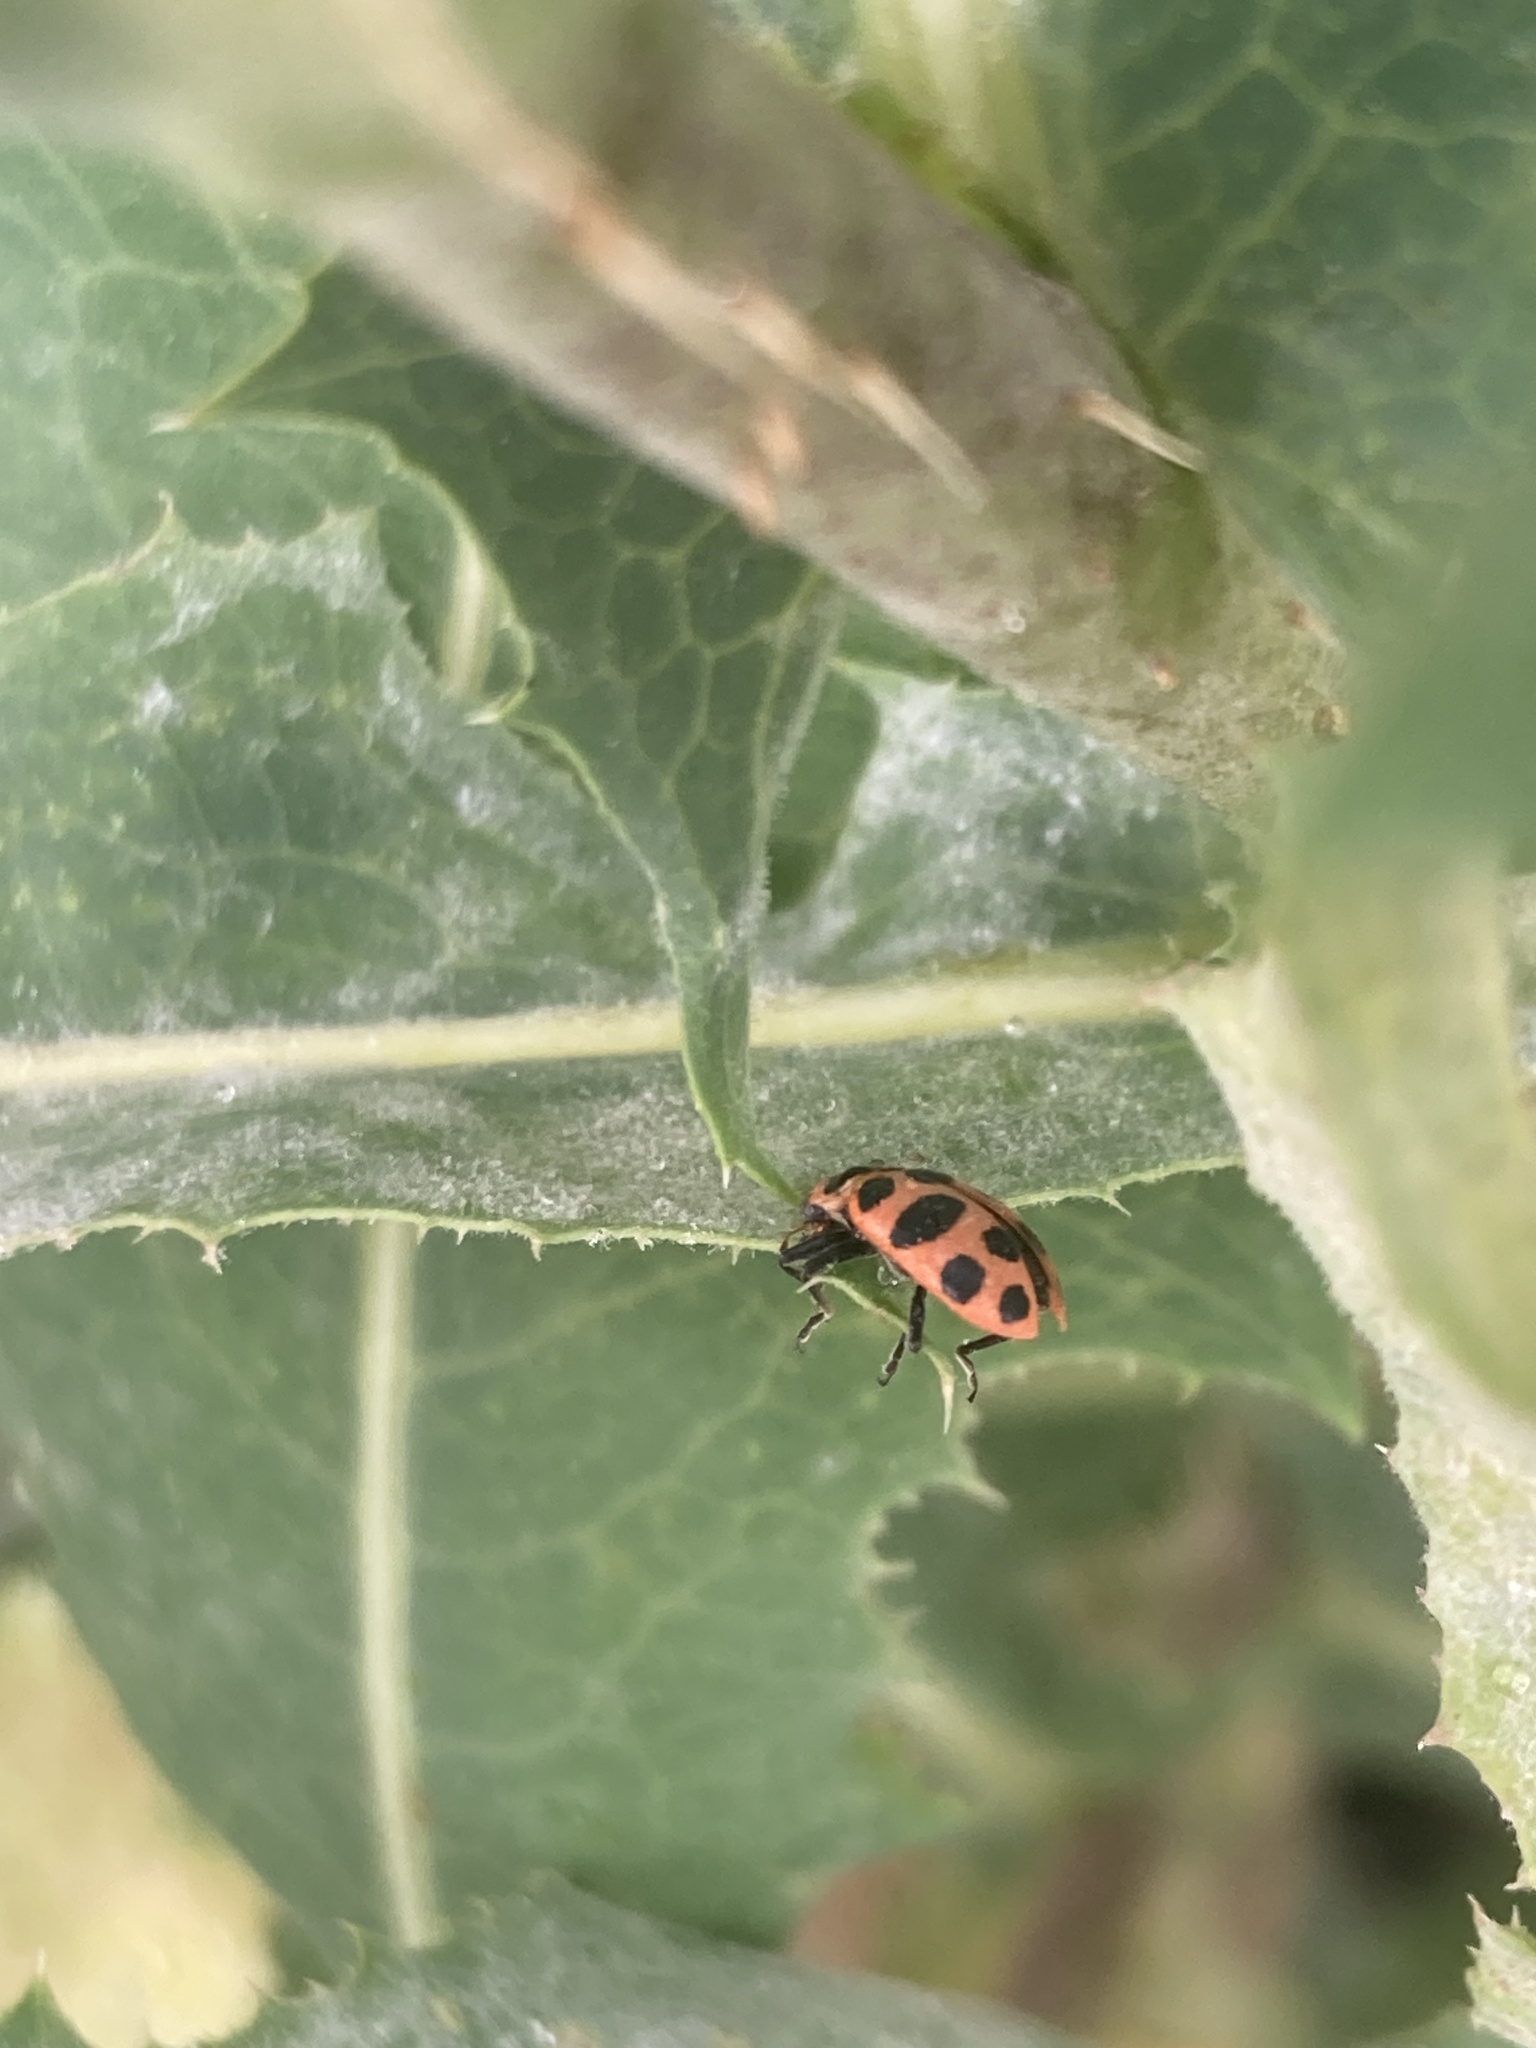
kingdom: Animalia
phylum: Arthropoda
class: Insecta
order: Coleoptera
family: Coccinellidae
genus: Coleomegilla
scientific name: Coleomegilla maculata
